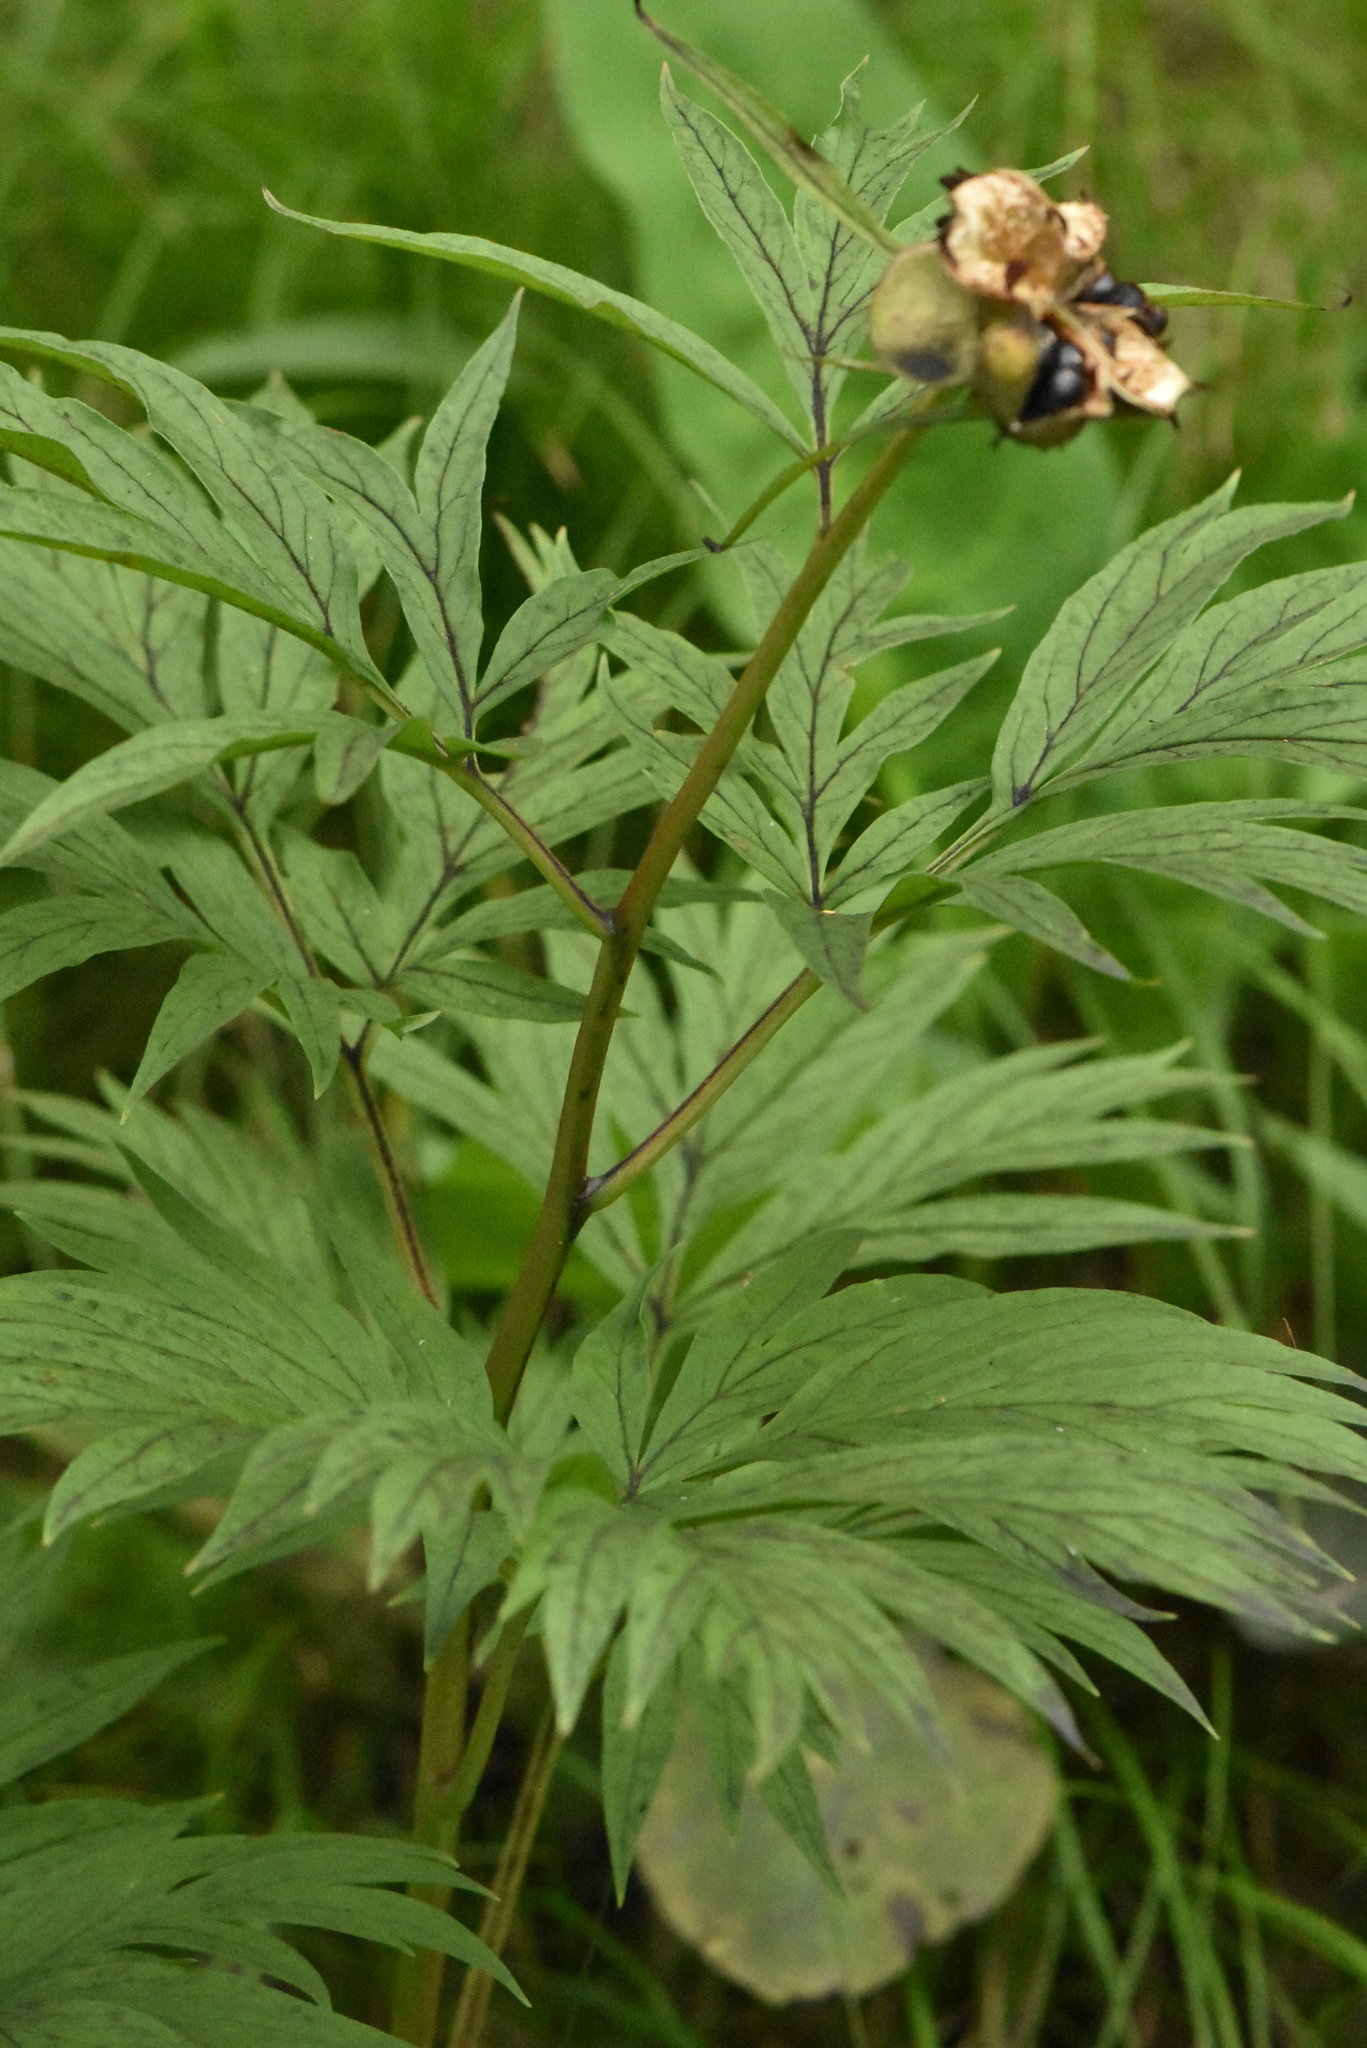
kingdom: Plantae
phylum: Tracheophyta
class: Magnoliopsida
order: Saxifragales
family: Paeoniaceae
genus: Paeonia
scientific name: Paeonia anomala
